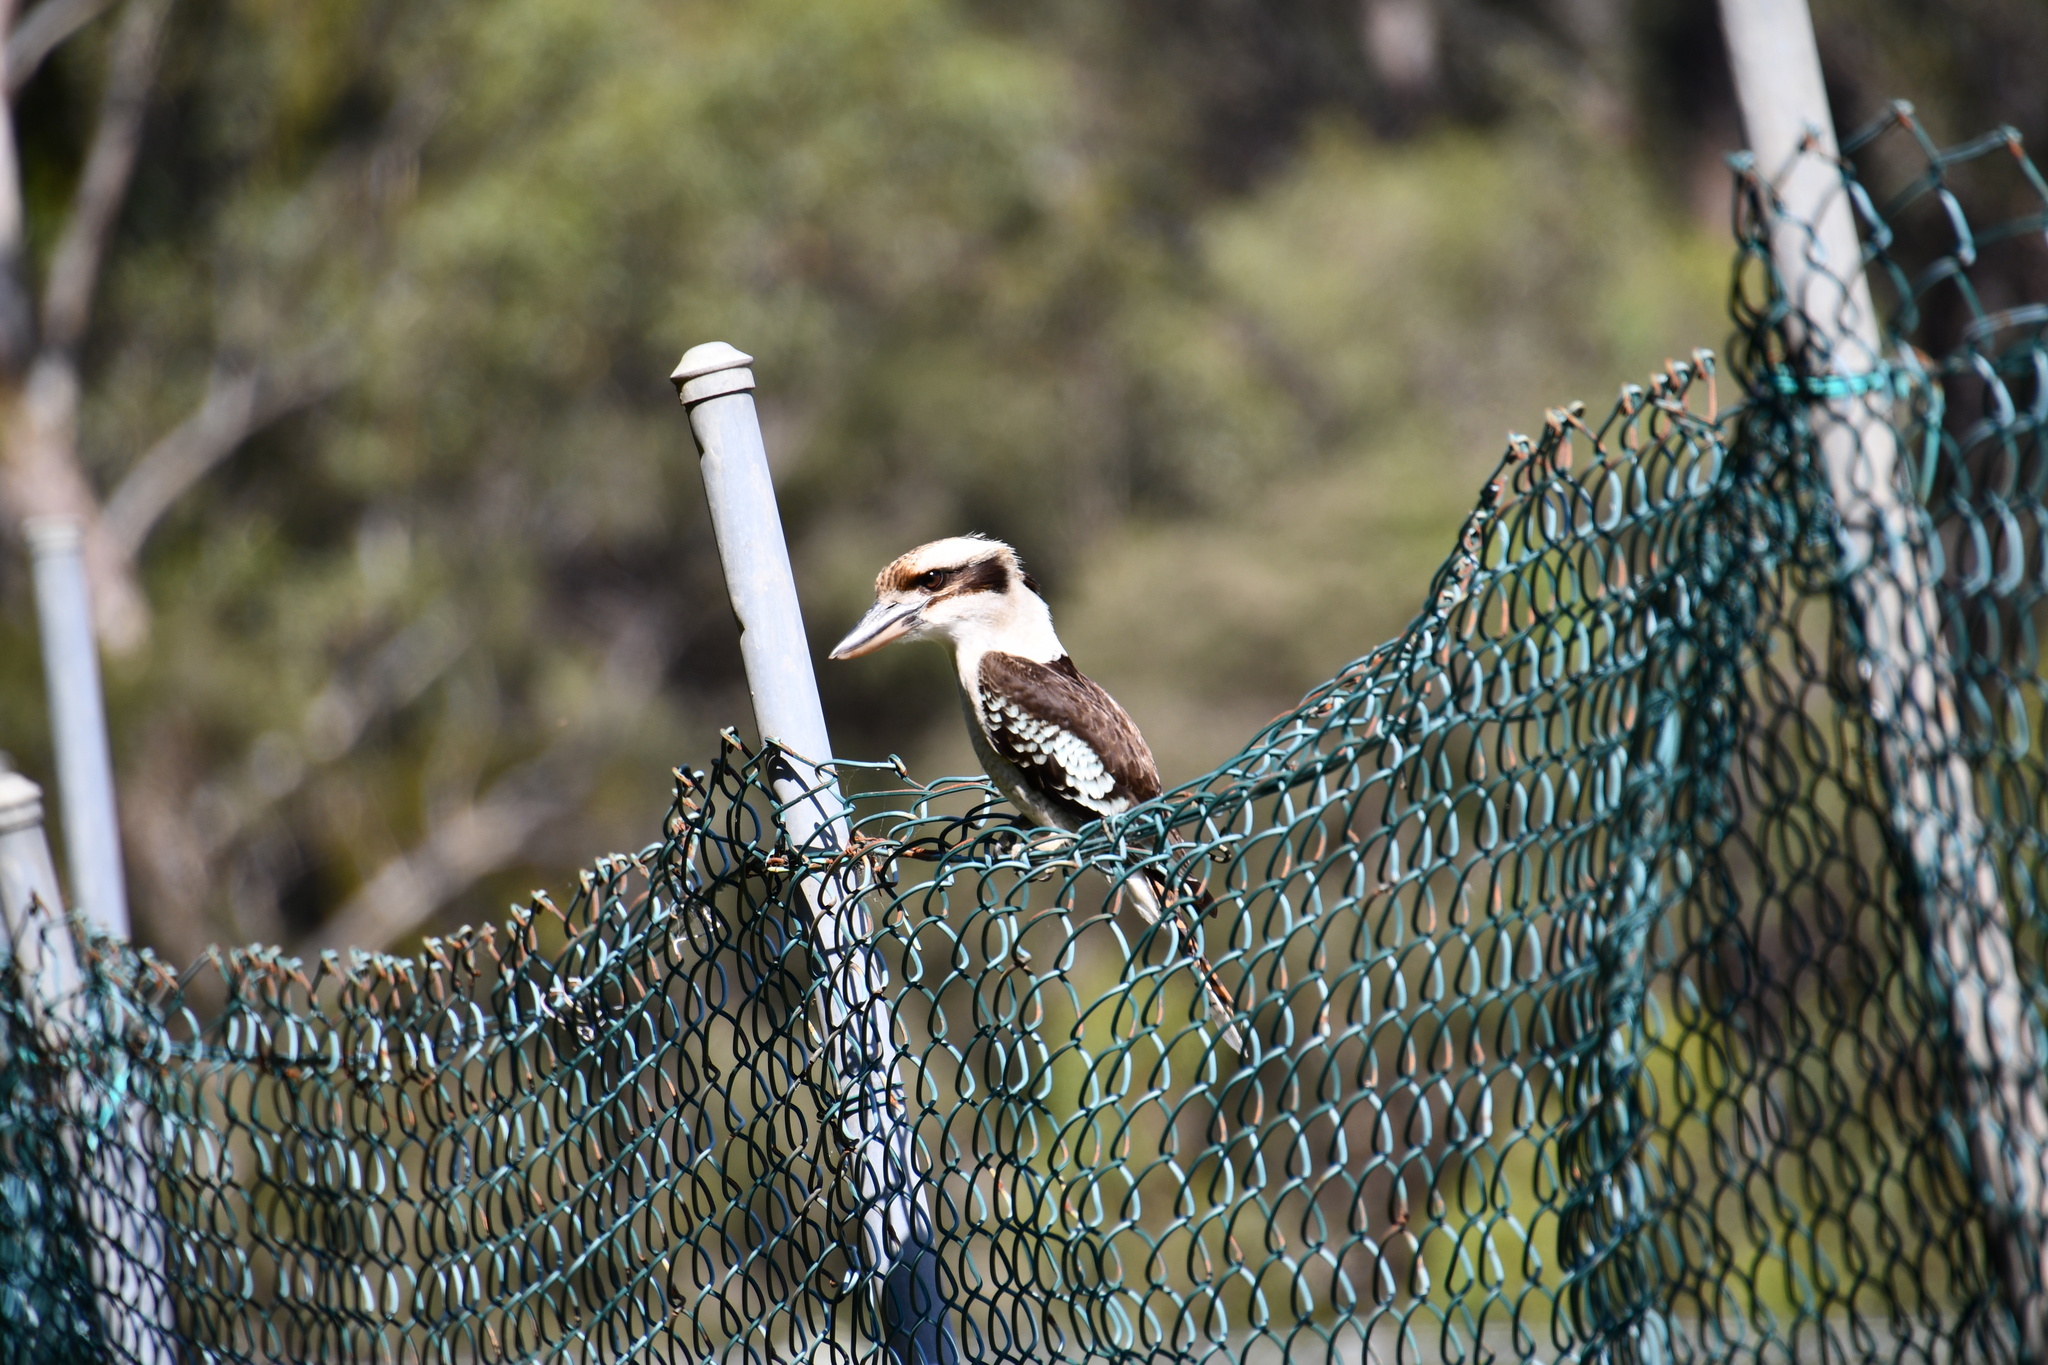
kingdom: Animalia
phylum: Chordata
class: Aves
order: Coraciiformes
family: Alcedinidae
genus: Dacelo
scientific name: Dacelo novaeguineae
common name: Laughing kookaburra
